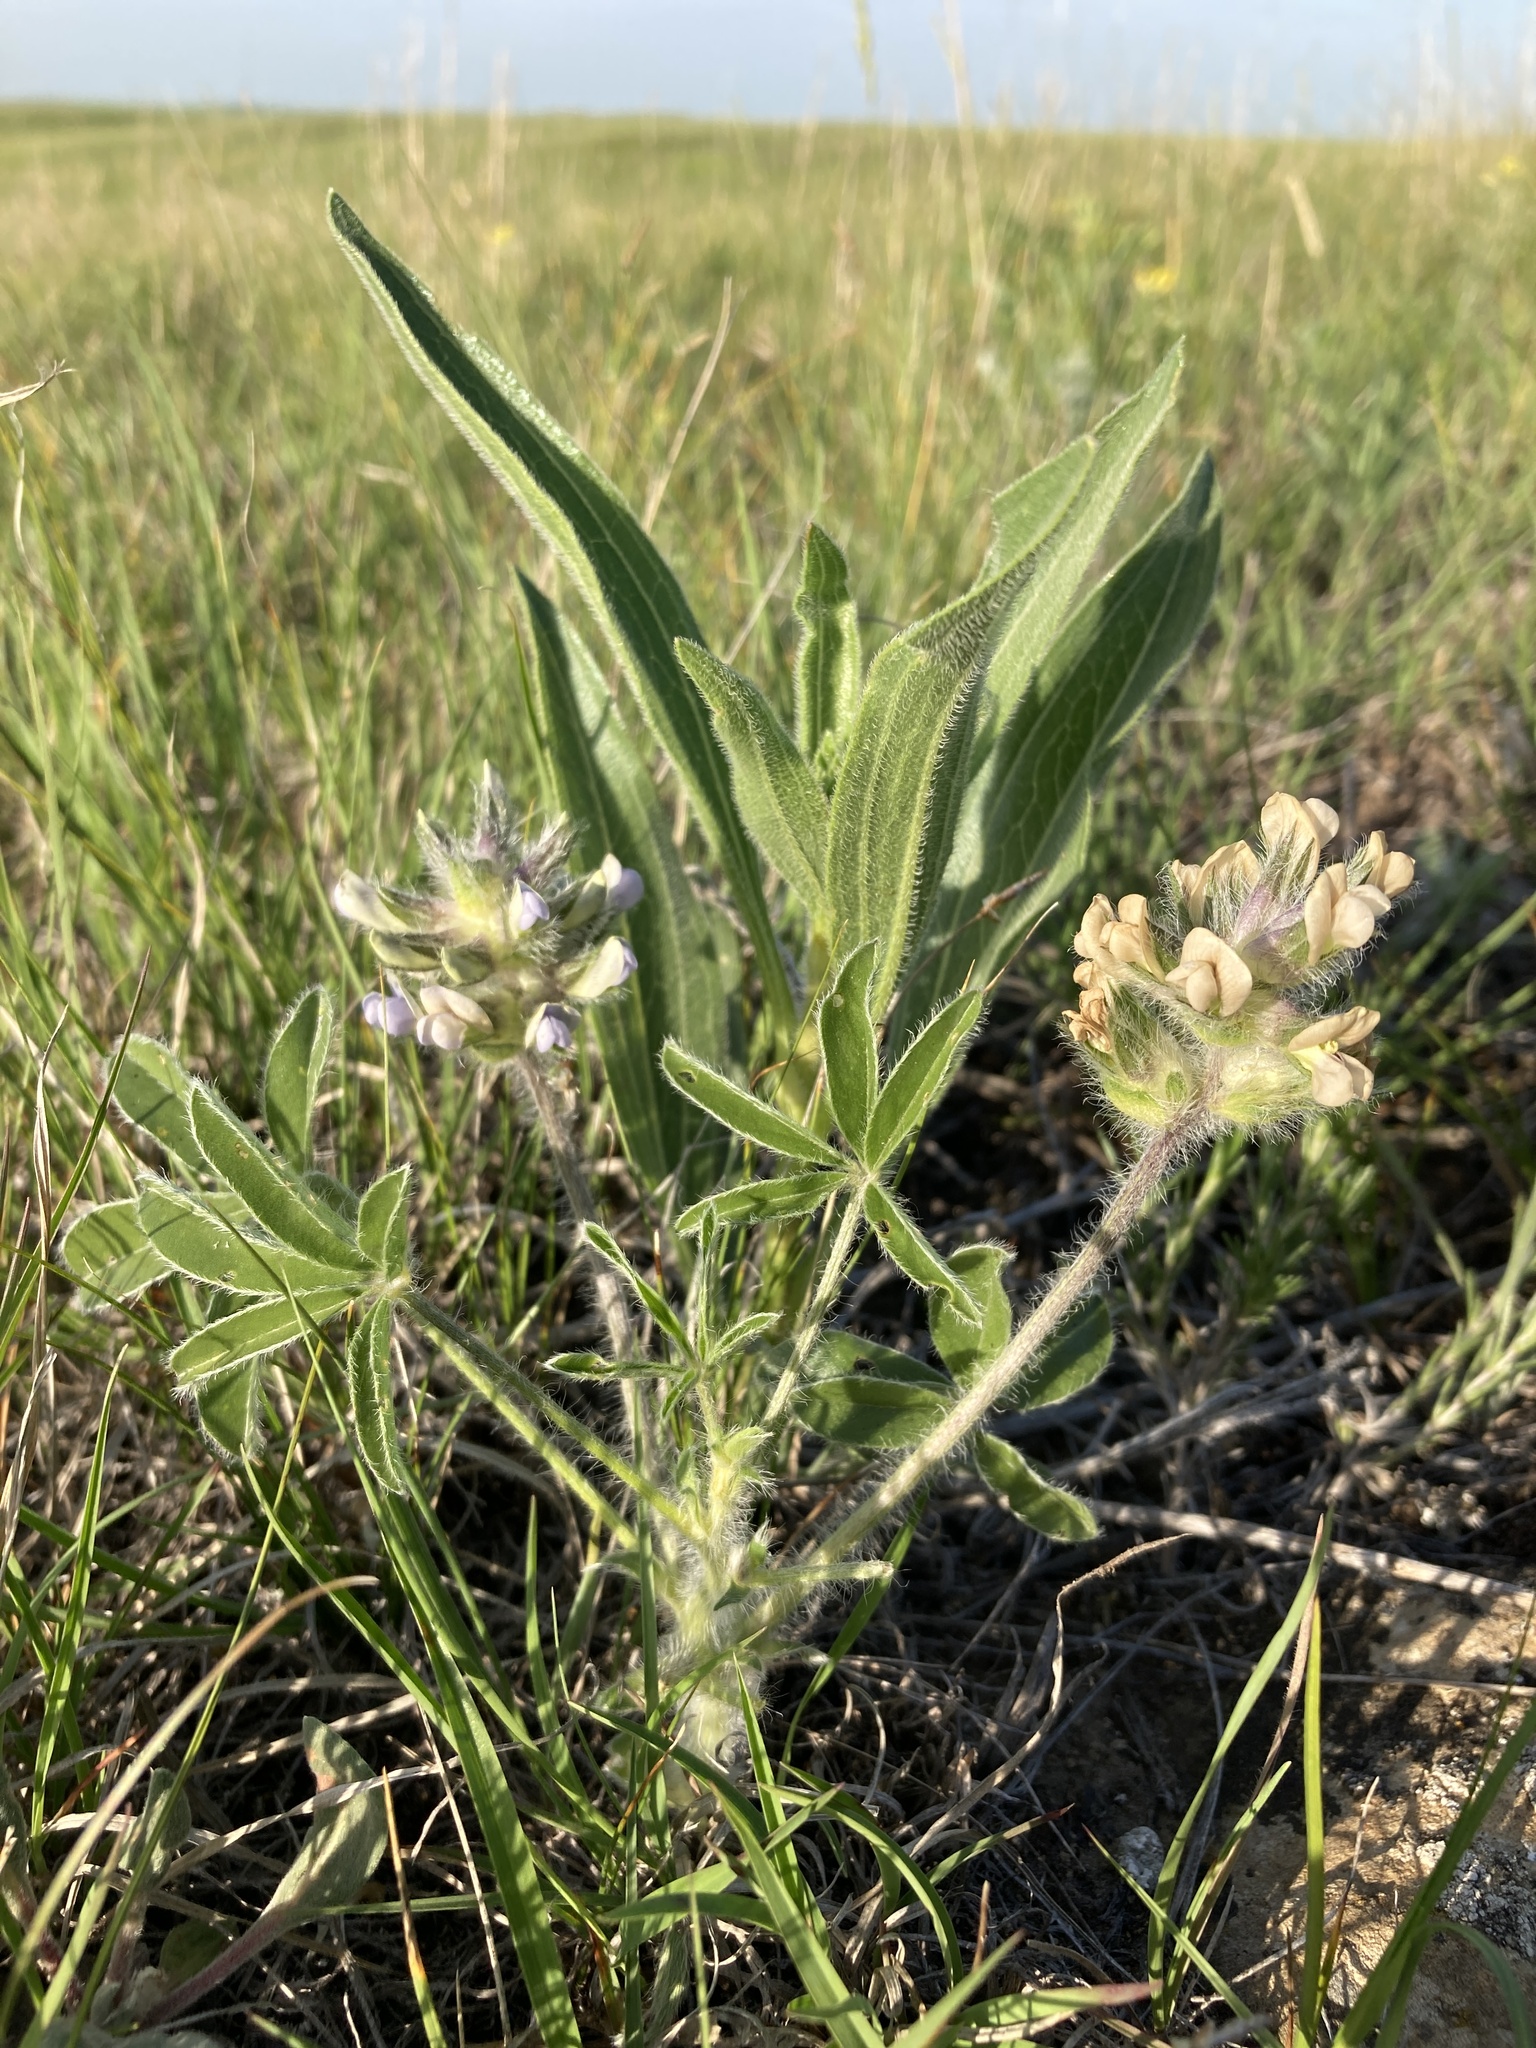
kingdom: Plantae
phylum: Tracheophyta
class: Magnoliopsida
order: Fabales
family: Fabaceae
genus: Pediomelum
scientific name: Pediomelum esculentum
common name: Indian-turnip
